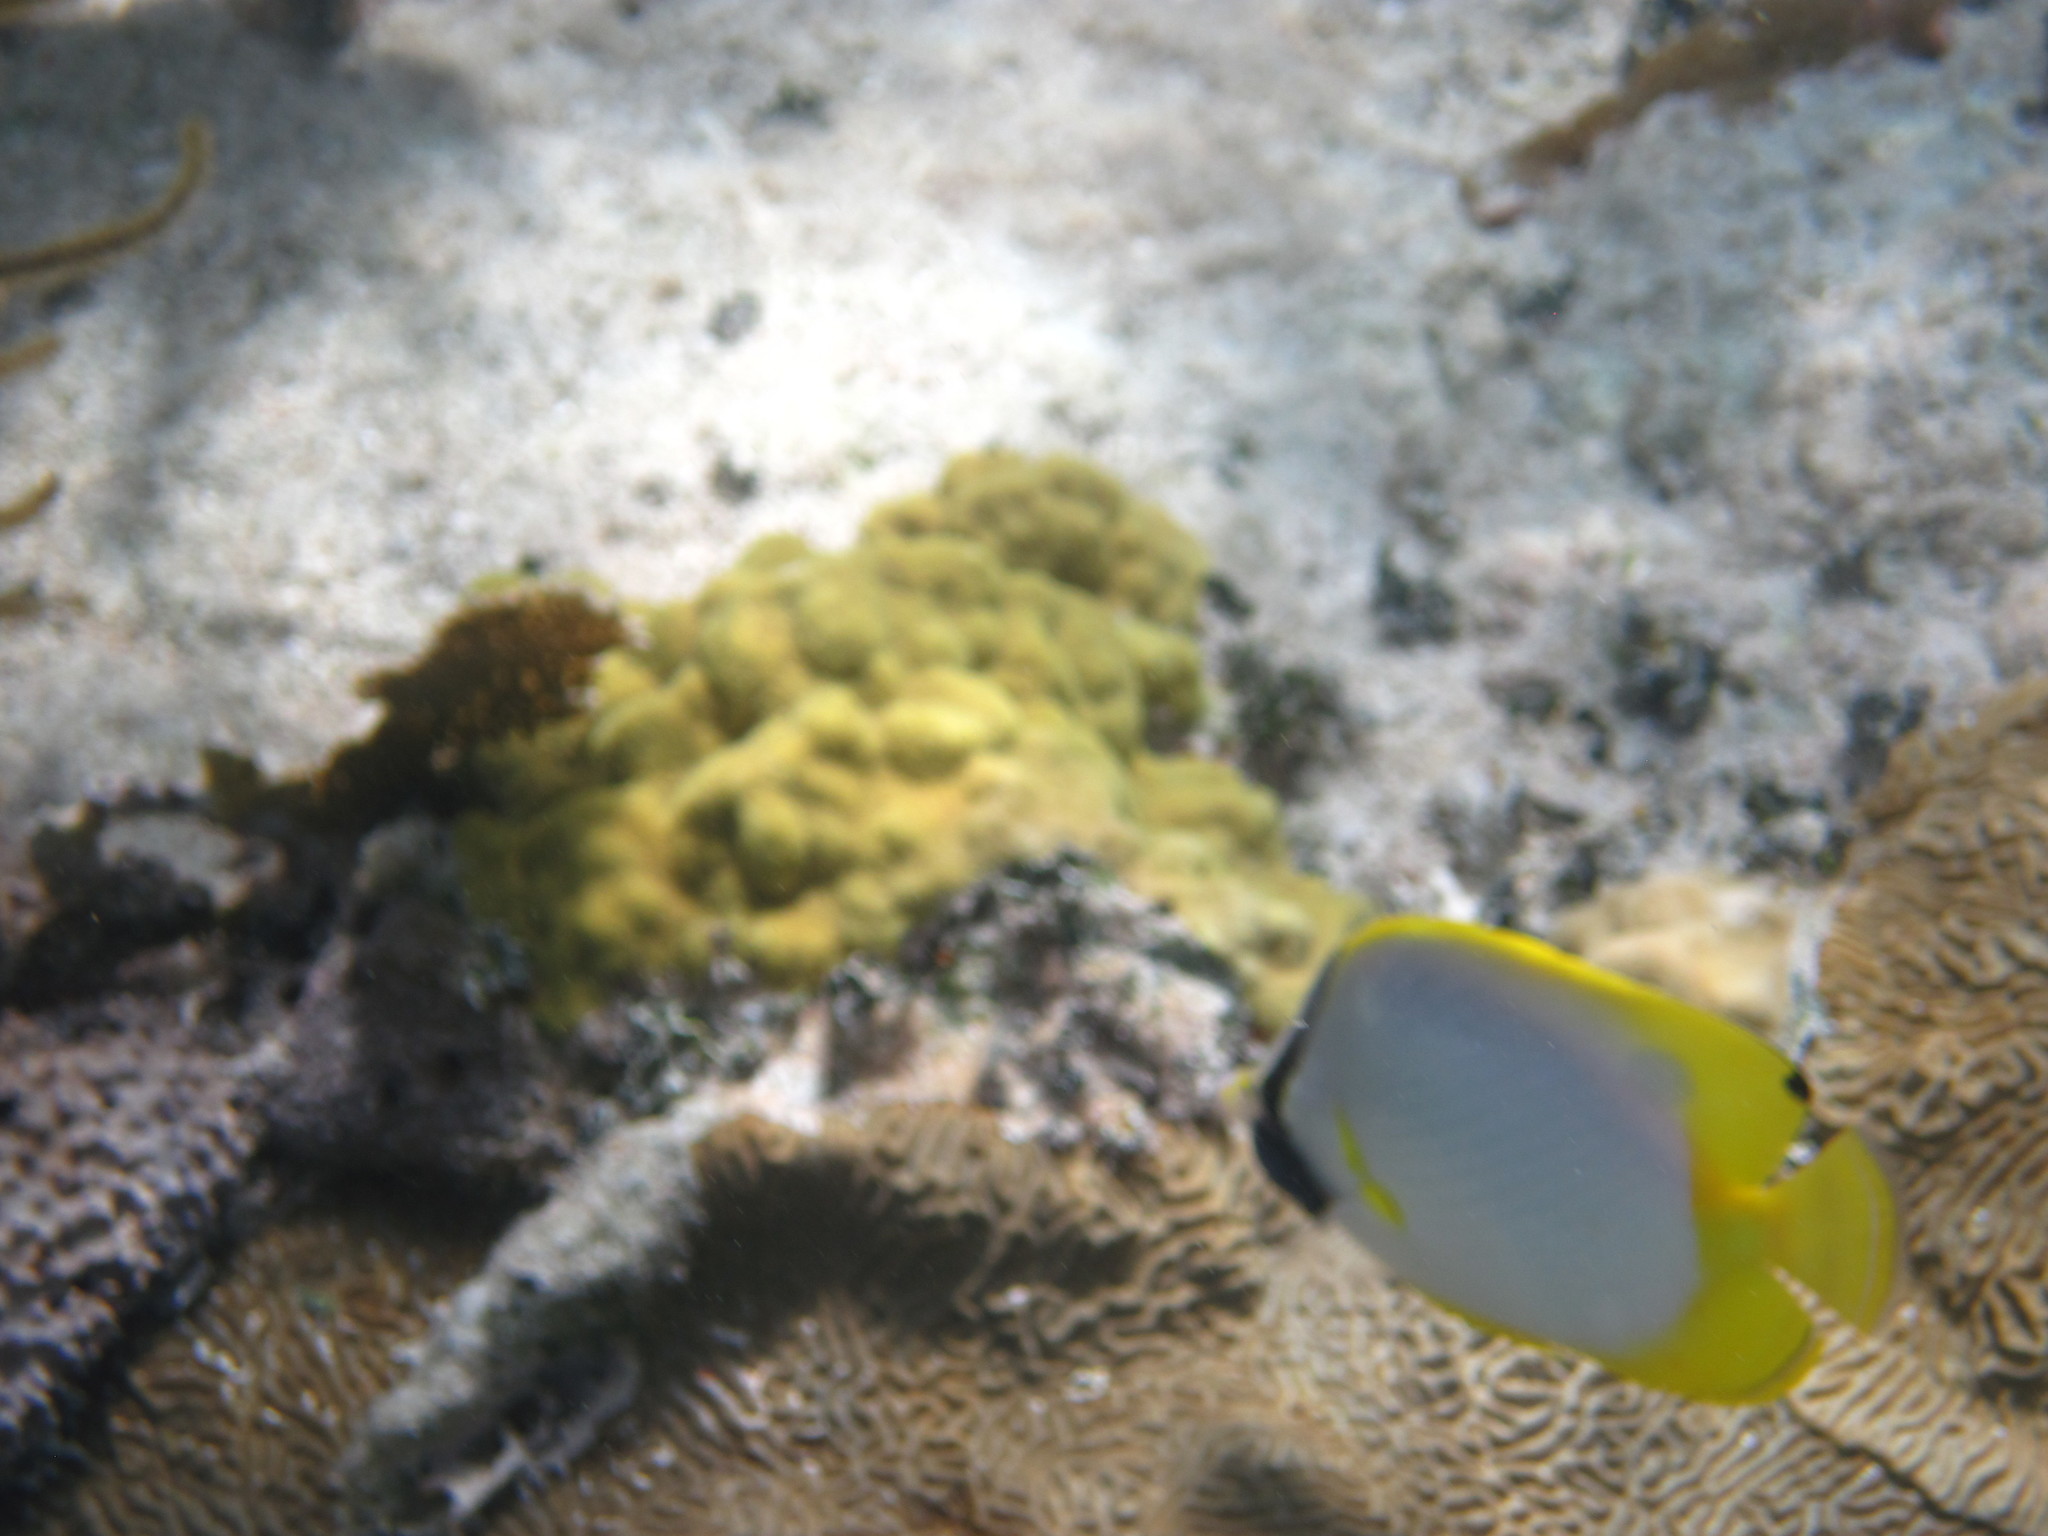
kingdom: Animalia
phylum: Chordata
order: Perciformes
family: Chaetodontidae
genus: Chaetodon
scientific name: Chaetodon ocellatus
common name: Spotfin butterflyfish
